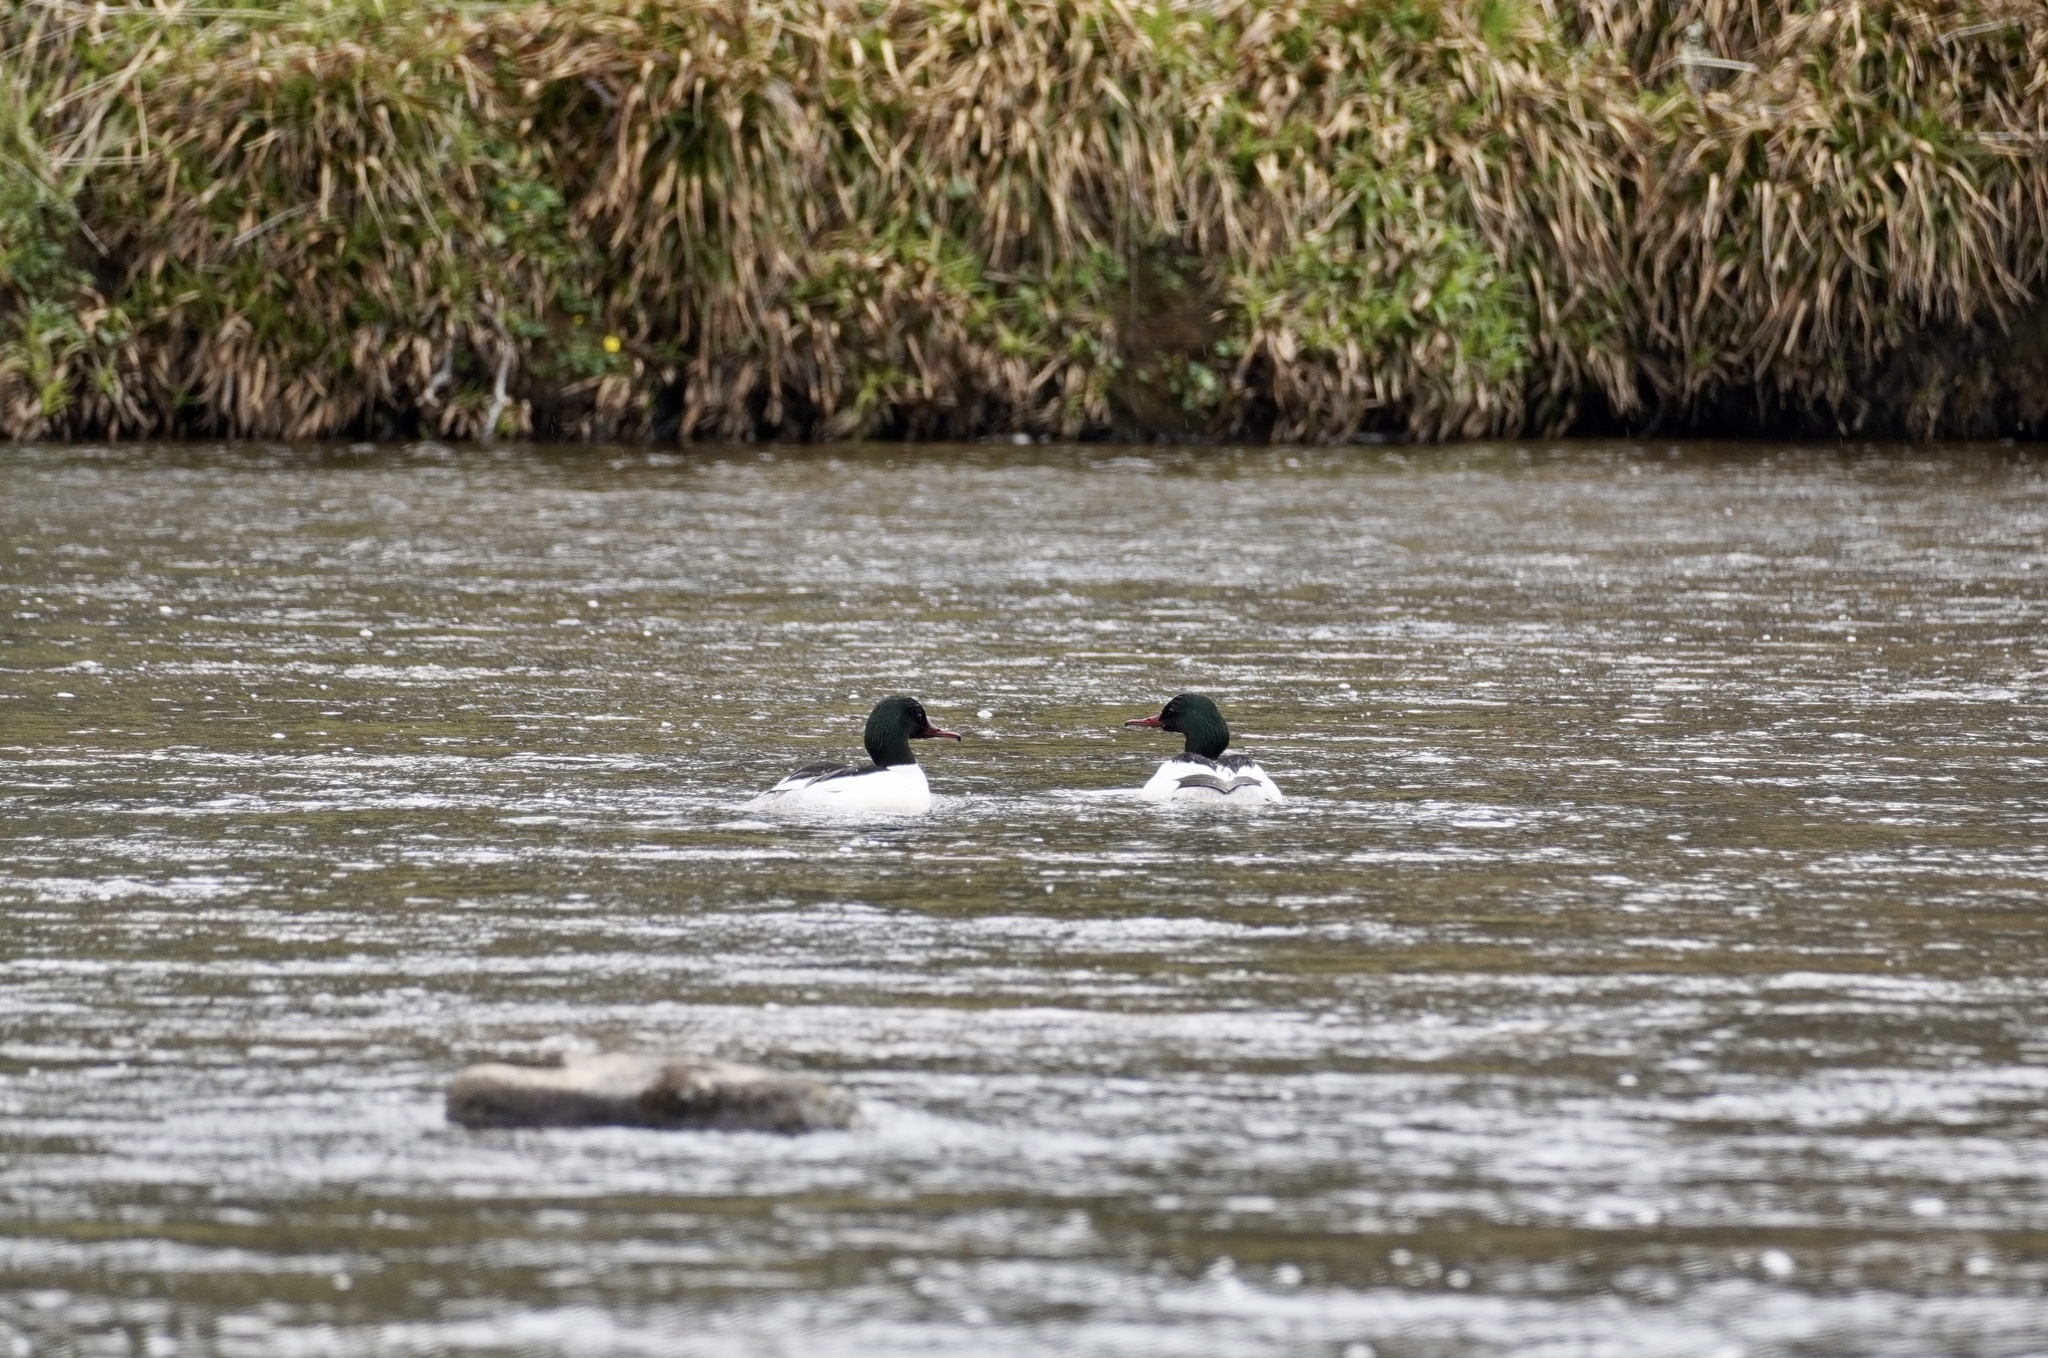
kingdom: Animalia
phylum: Chordata
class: Aves
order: Anseriformes
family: Anatidae
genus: Mergus
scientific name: Mergus merganser
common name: Common merganser
